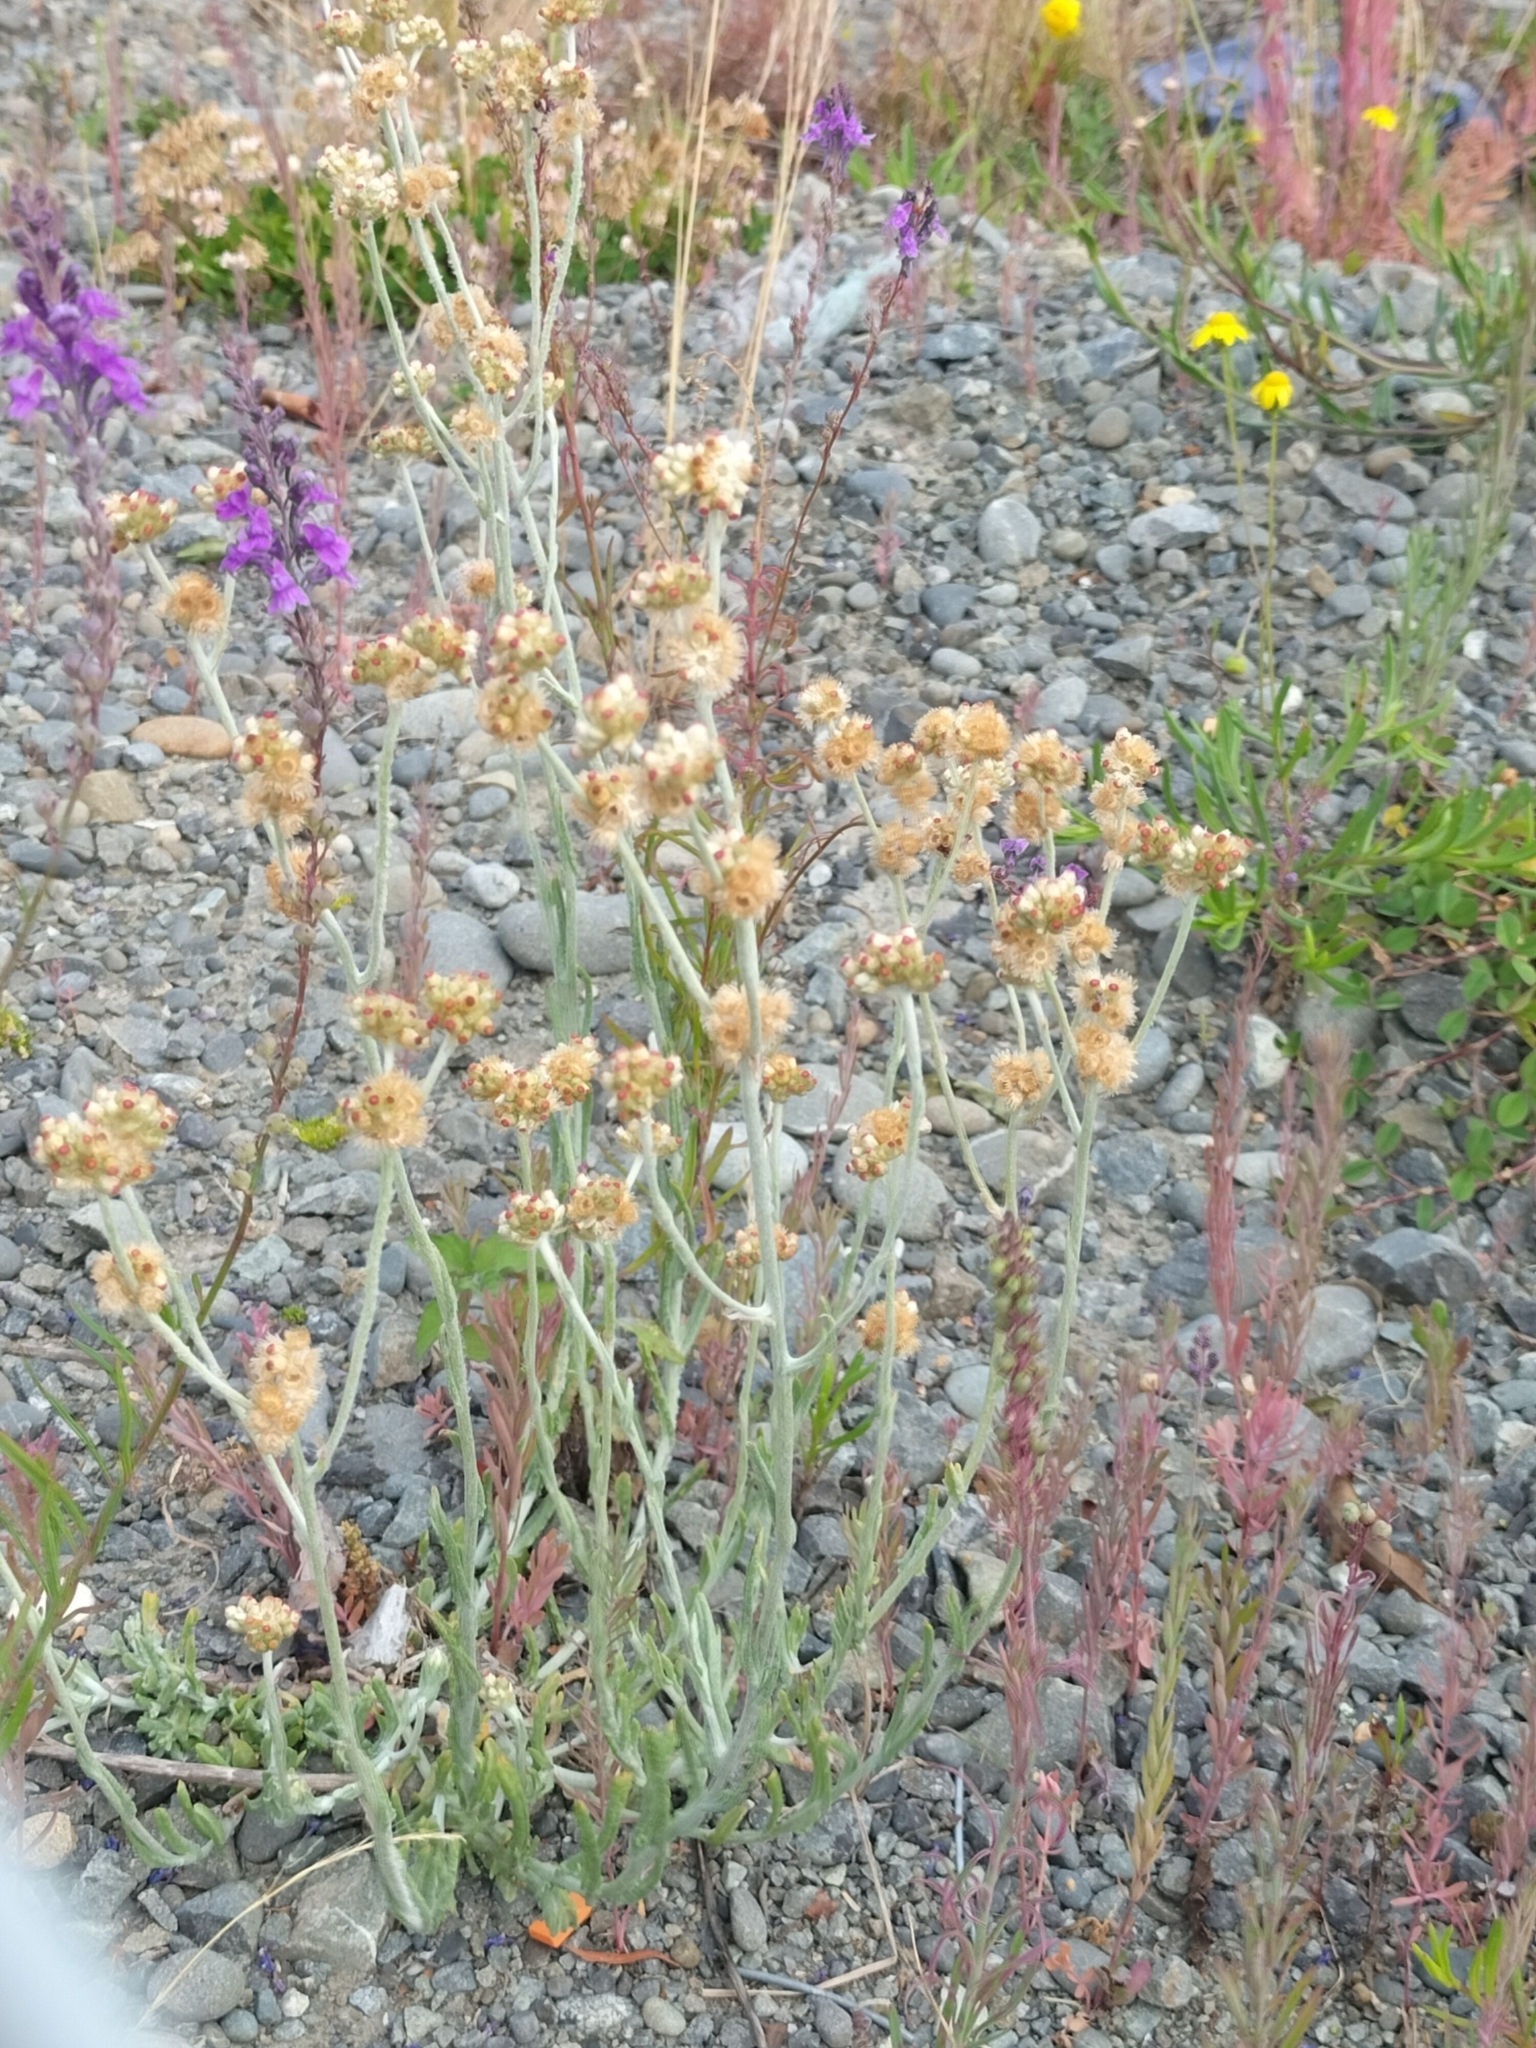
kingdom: Plantae
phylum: Tracheophyta
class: Magnoliopsida
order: Asterales
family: Asteraceae
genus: Helichrysum
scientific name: Helichrysum luteoalbum
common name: Daisy
